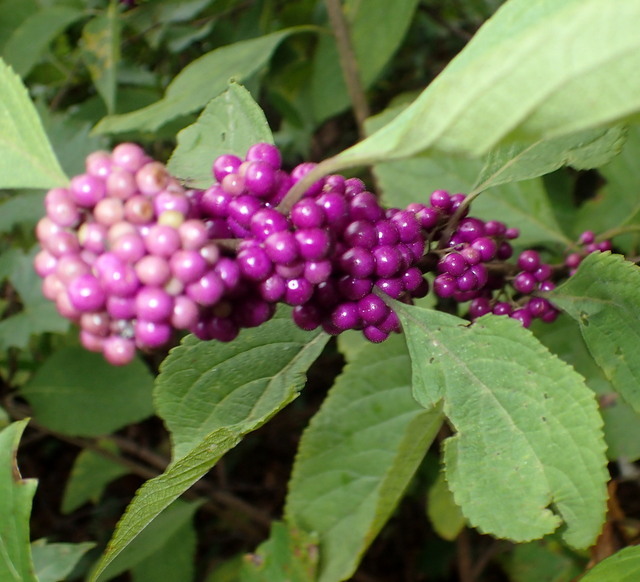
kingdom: Plantae
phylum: Tracheophyta
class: Magnoliopsida
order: Lamiales
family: Lamiaceae
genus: Callicarpa
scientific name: Callicarpa americana
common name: American beautyberry
